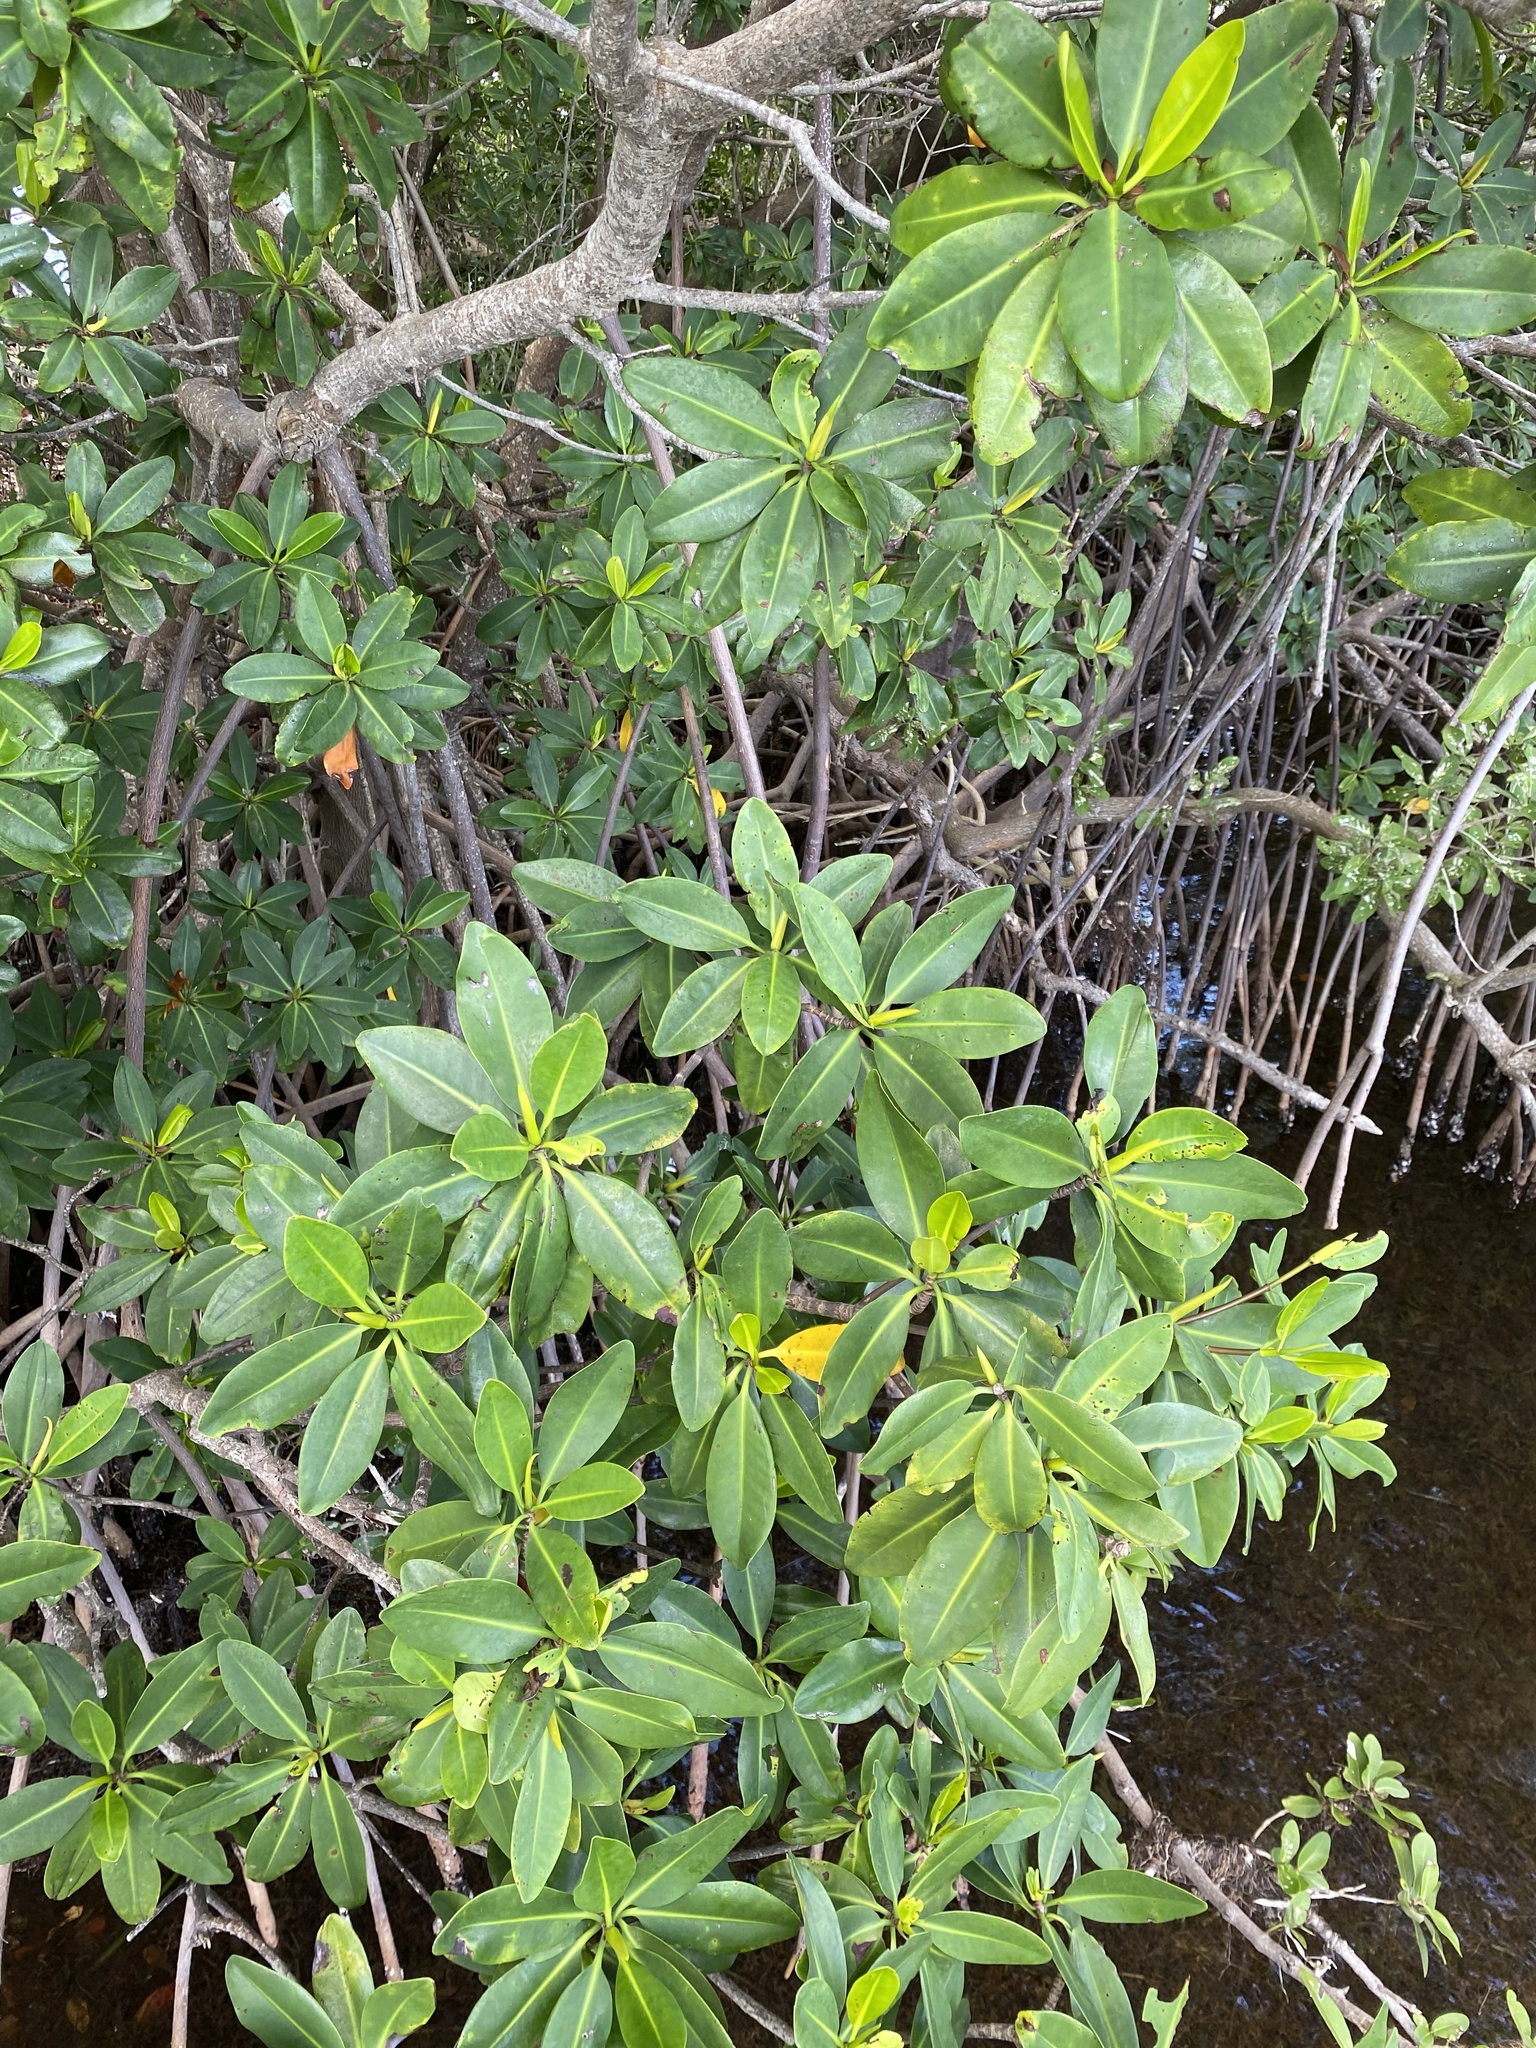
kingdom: Plantae
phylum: Tracheophyta
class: Magnoliopsida
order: Malpighiales
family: Rhizophoraceae
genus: Rhizophora
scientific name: Rhizophora mangle
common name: Red mangrove
